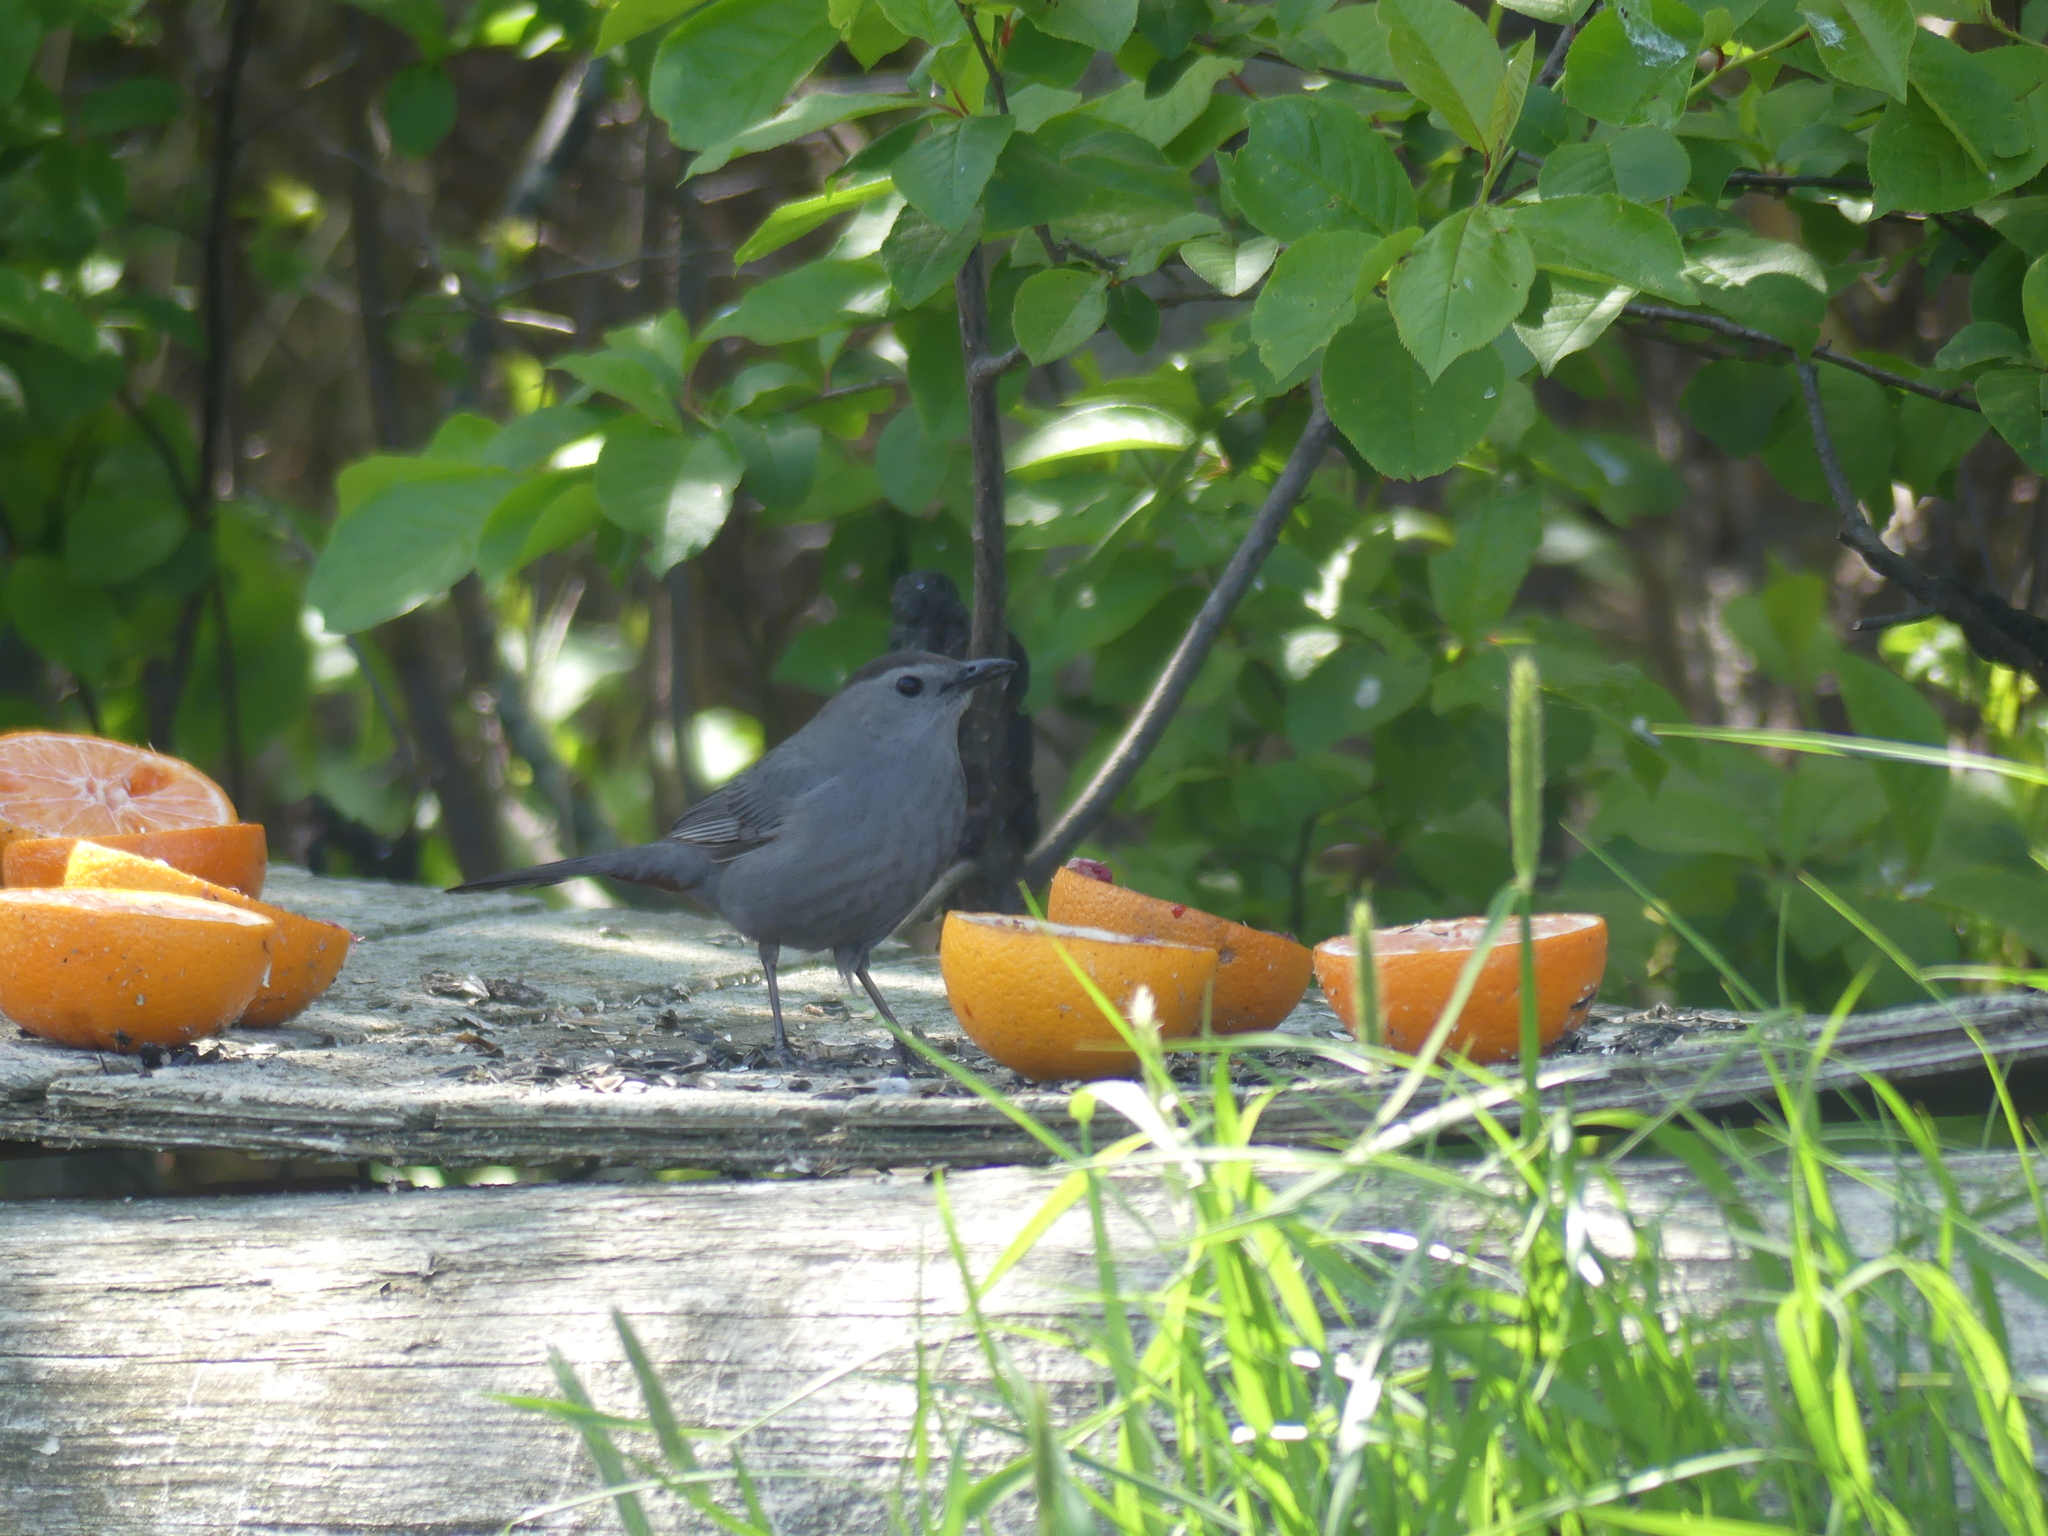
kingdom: Animalia
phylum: Chordata
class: Aves
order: Passeriformes
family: Mimidae
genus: Dumetella
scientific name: Dumetella carolinensis
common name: Gray catbird
